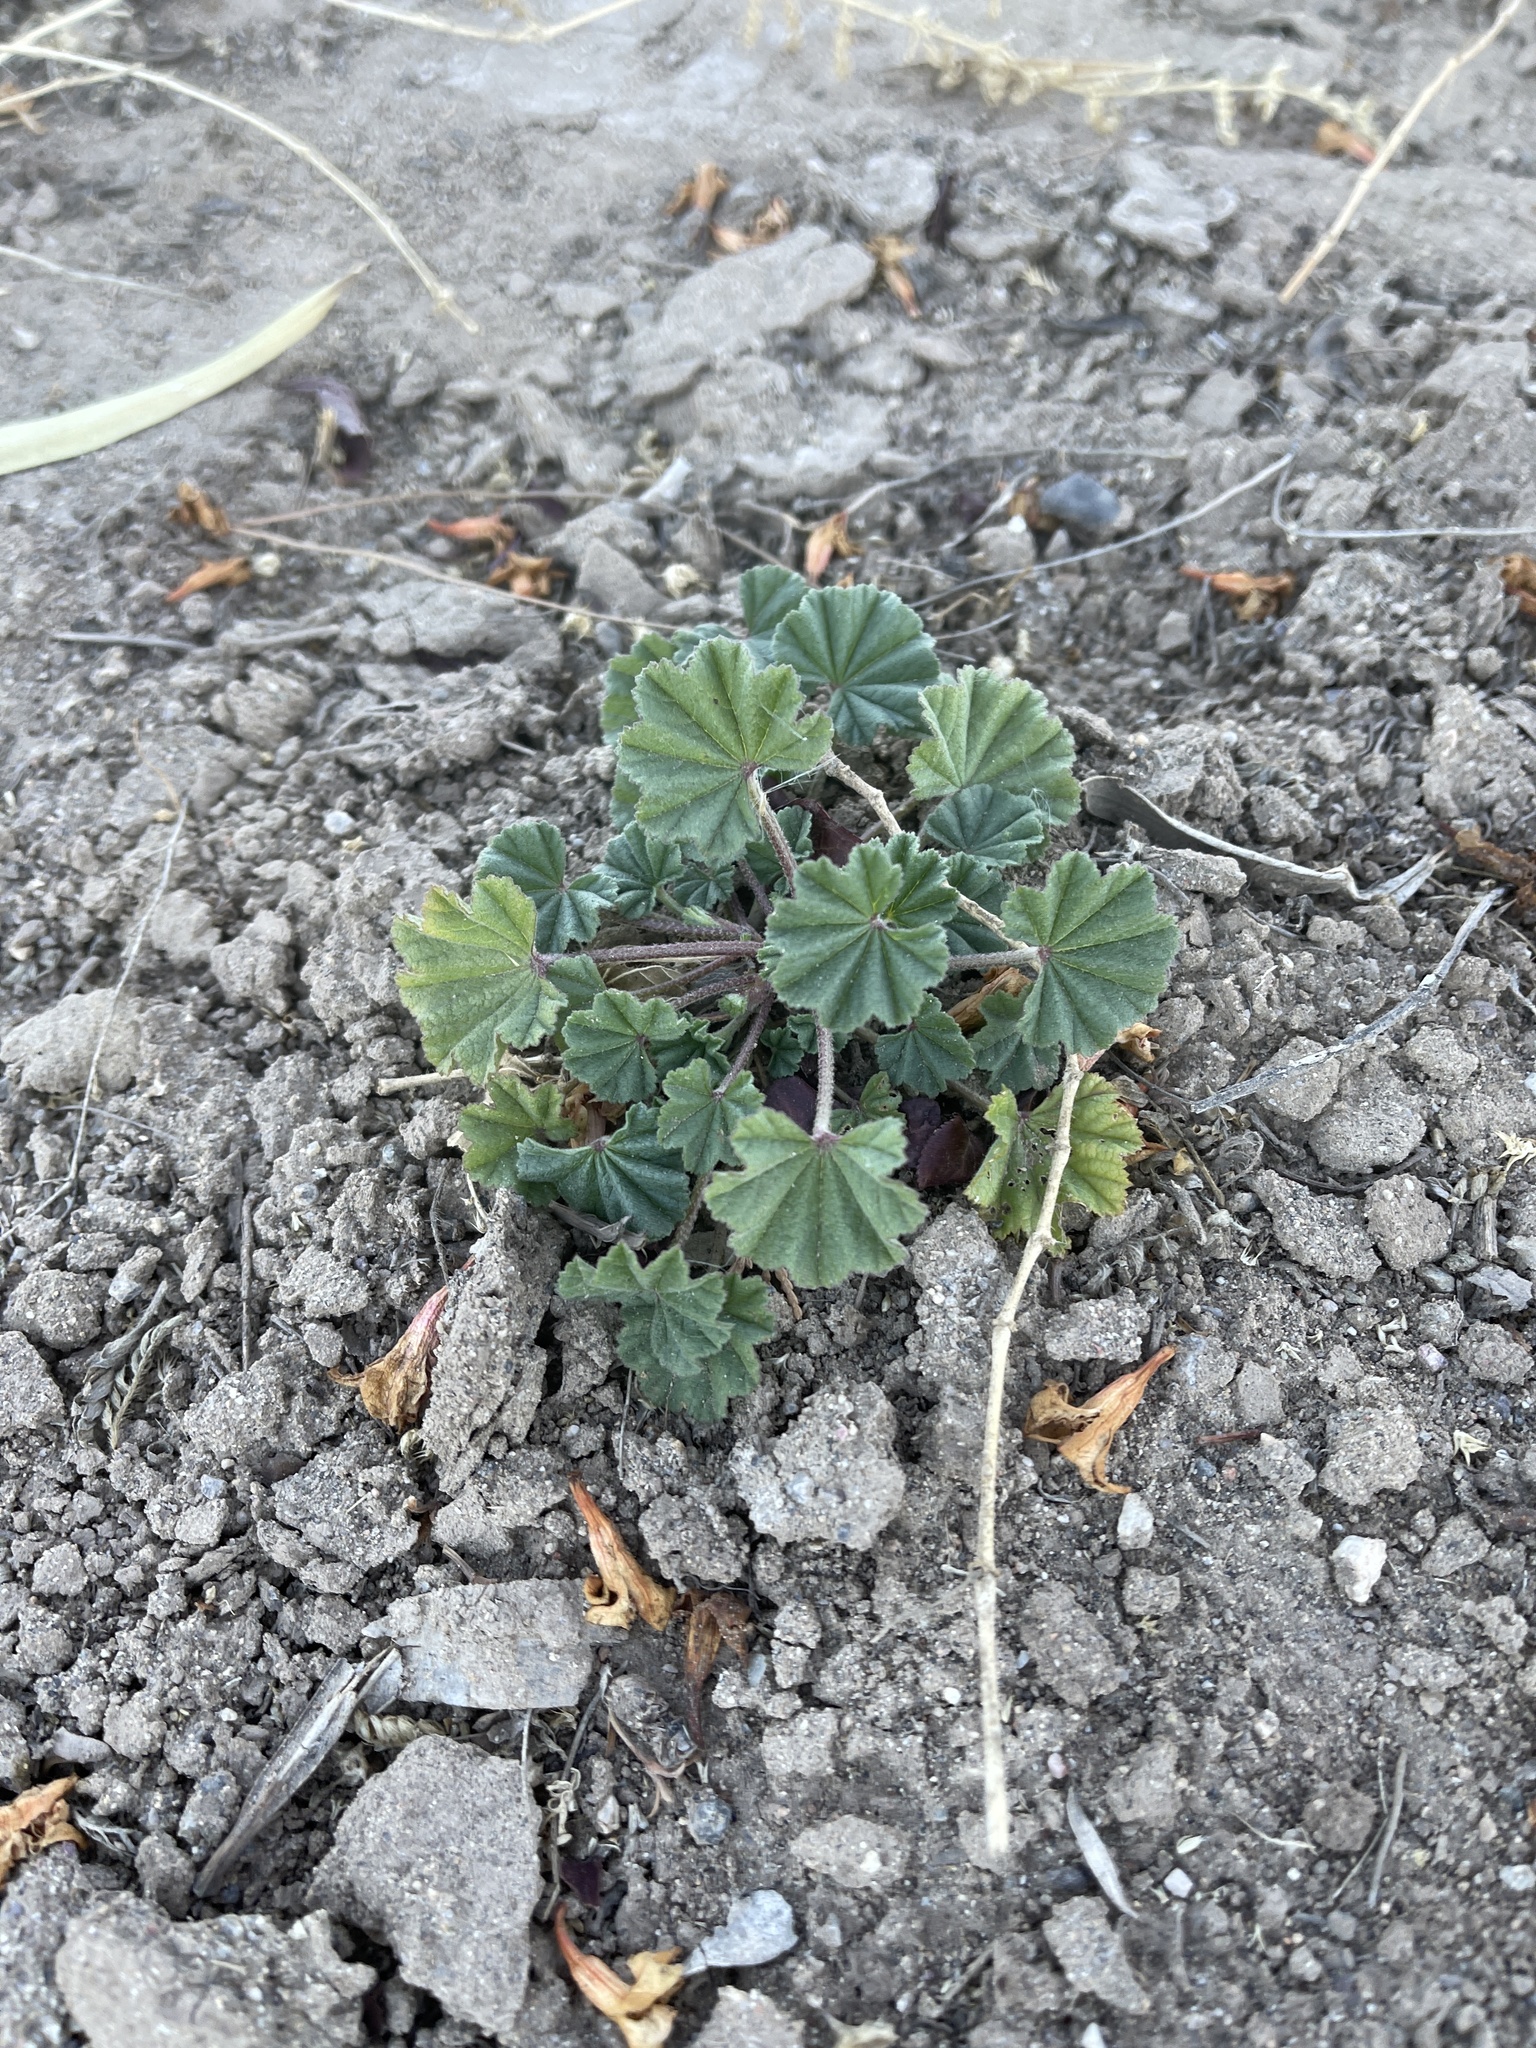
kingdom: Plantae
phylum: Tracheophyta
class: Magnoliopsida
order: Malvales
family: Malvaceae
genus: Malva
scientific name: Malva parviflora
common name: Least mallow
